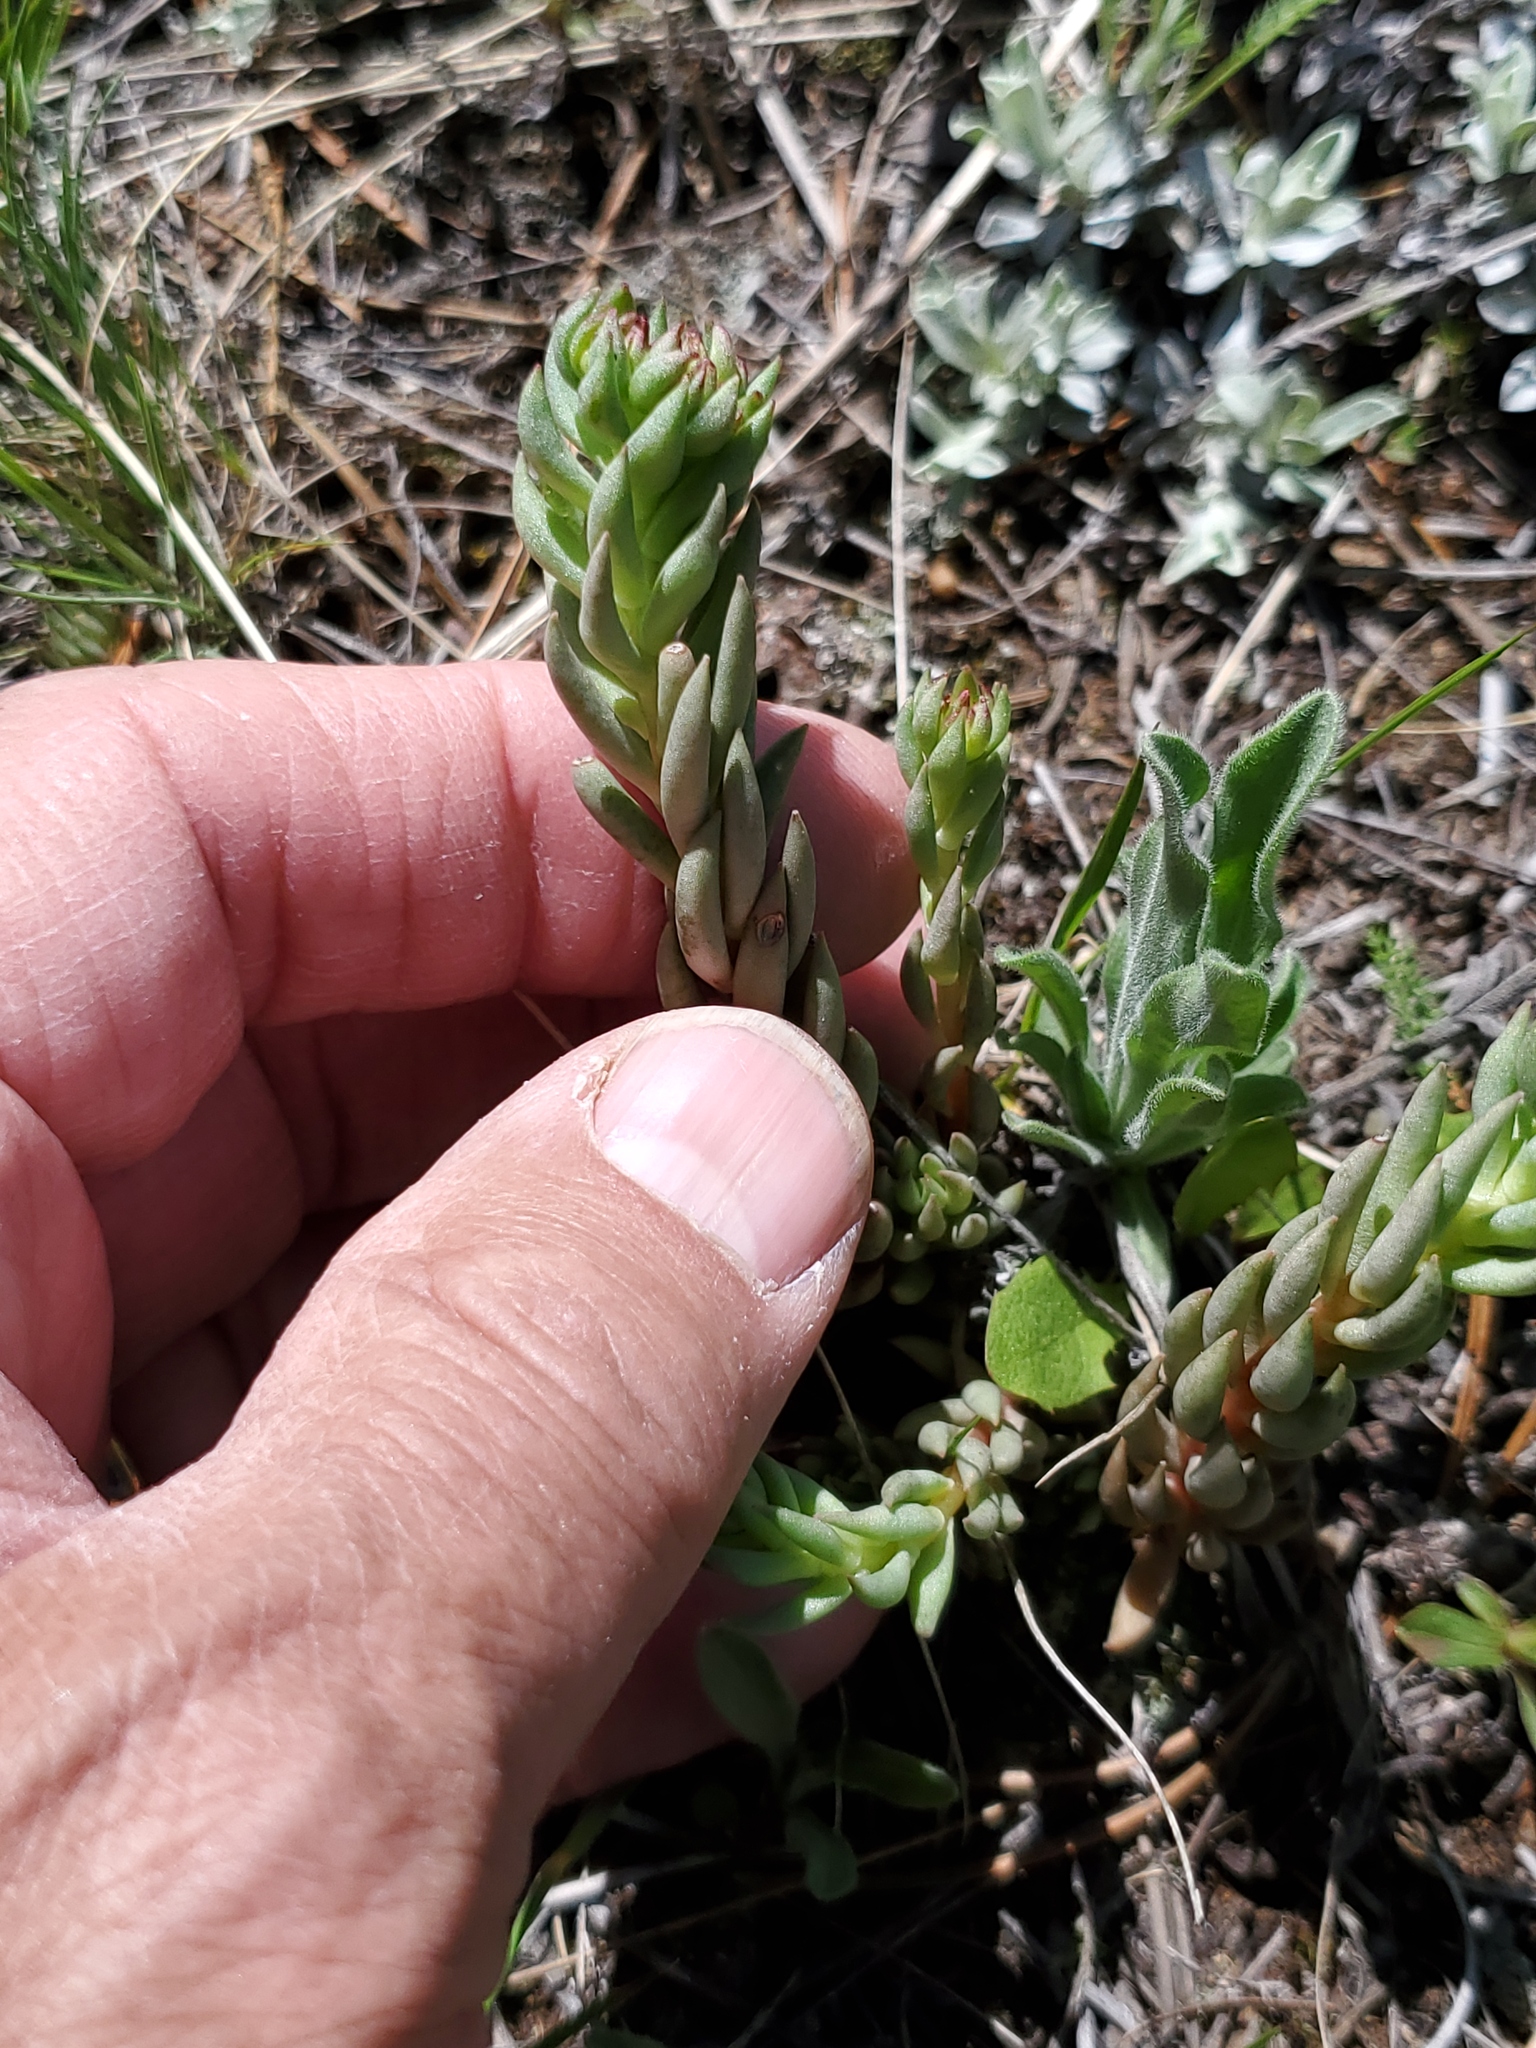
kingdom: Plantae
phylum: Tracheophyta
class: Magnoliopsida
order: Saxifragales
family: Crassulaceae
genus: Sedum
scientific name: Sedum lanceolatum
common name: Common stonecrop
